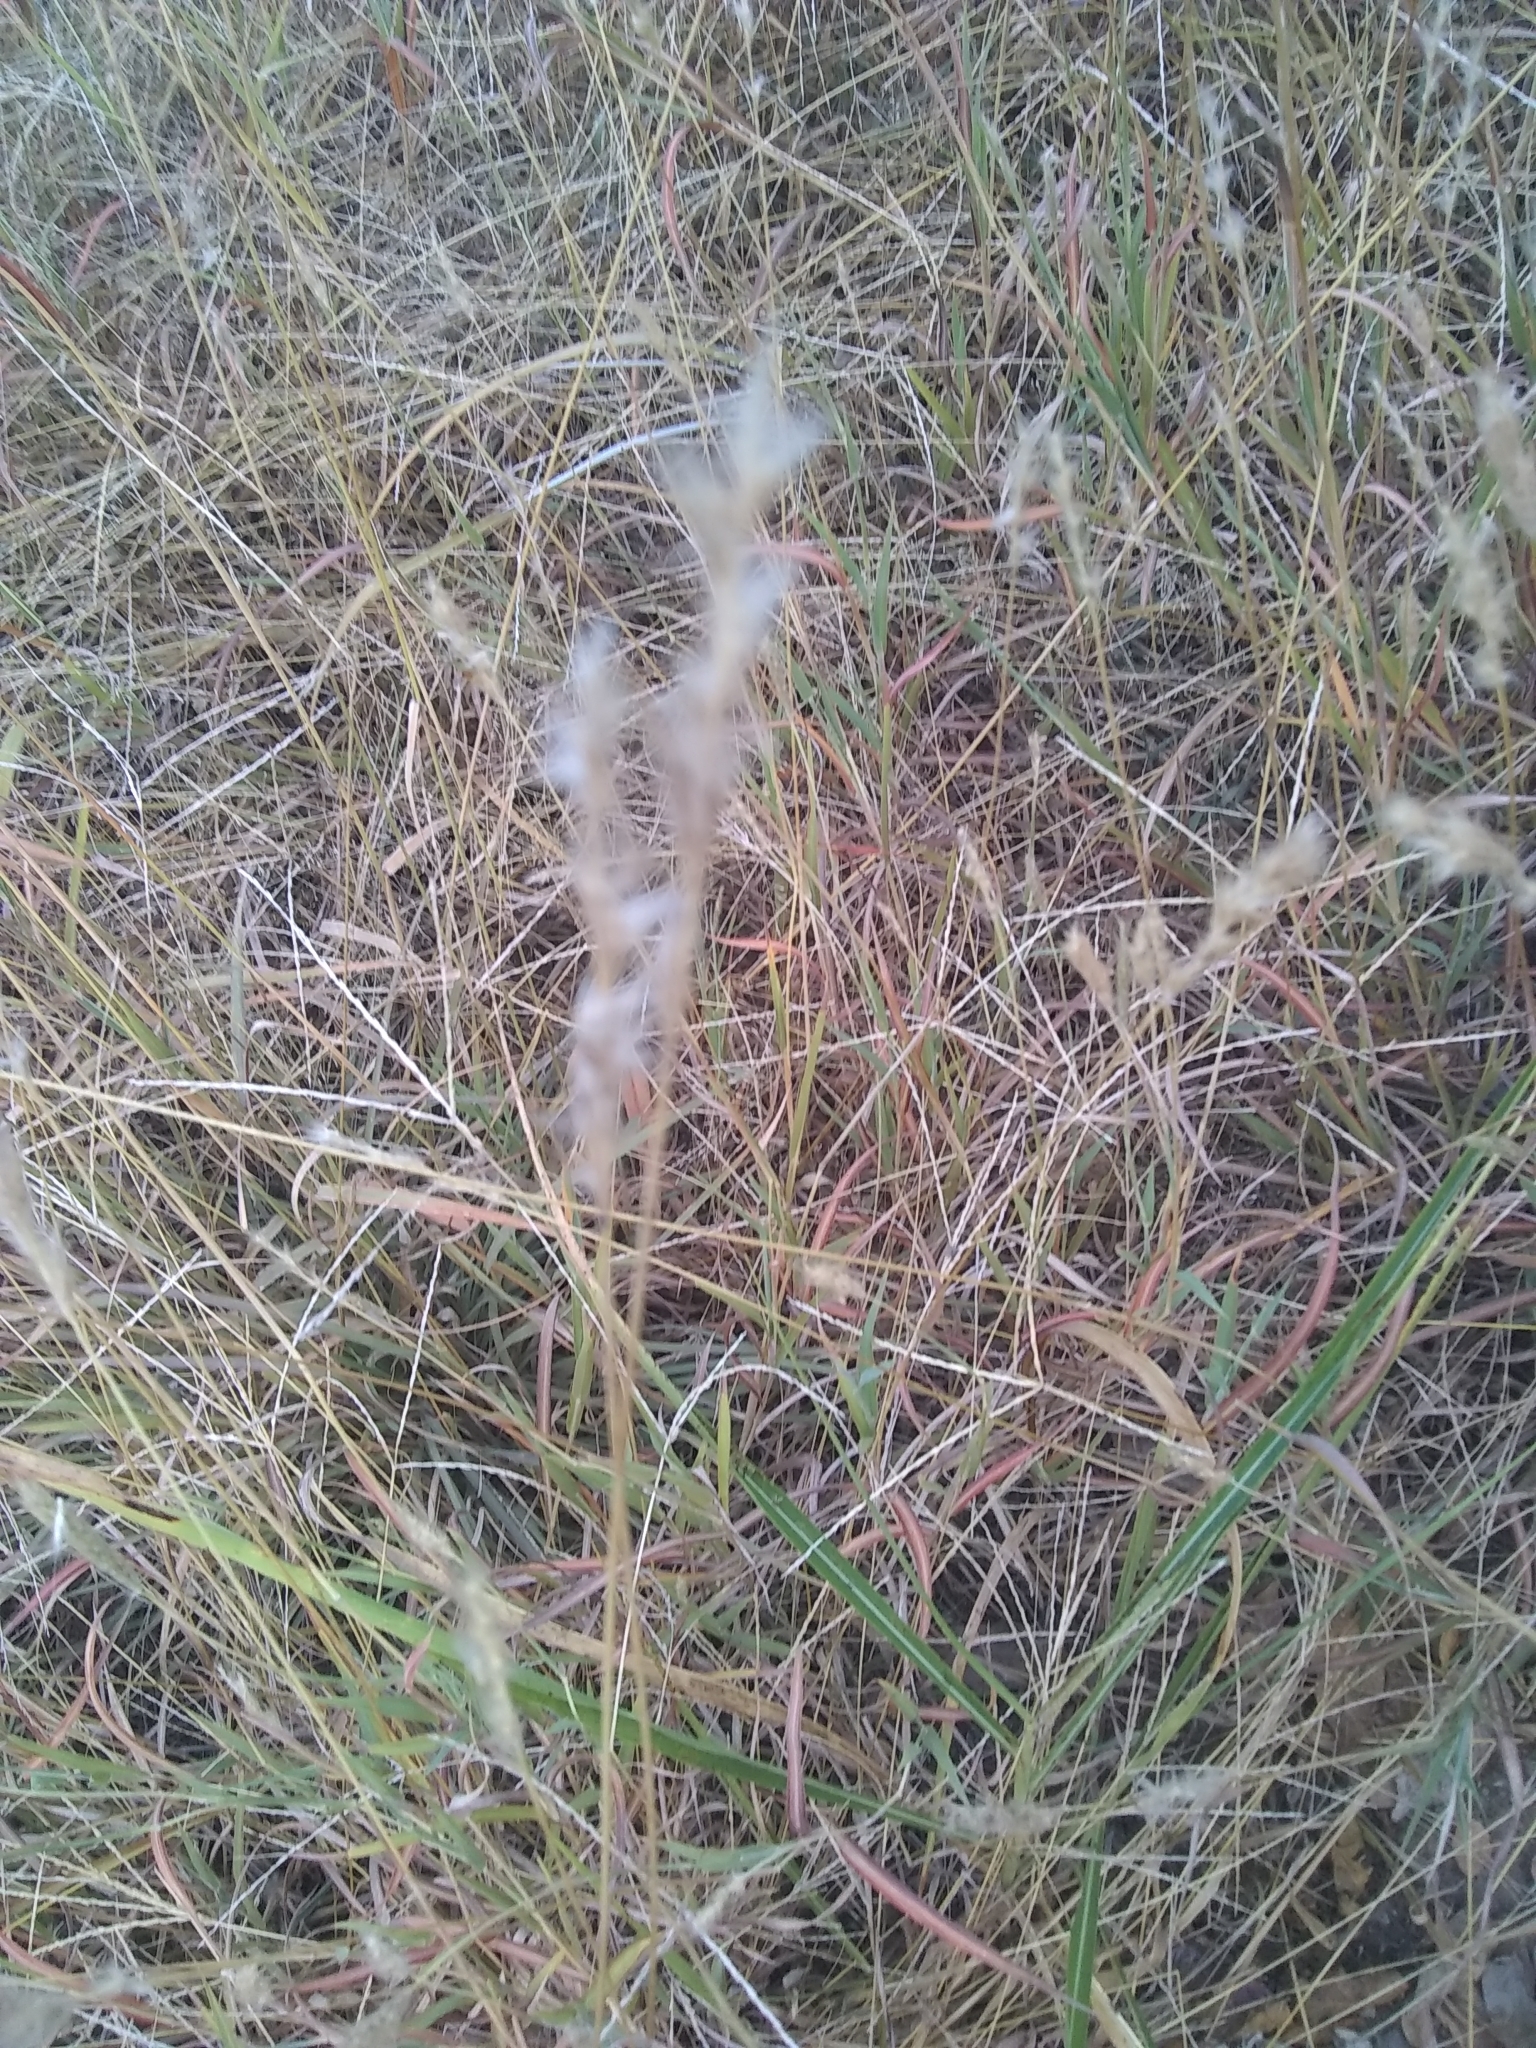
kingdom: Plantae
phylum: Tracheophyta
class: Liliopsida
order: Poales
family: Poaceae
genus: Bothriochloa
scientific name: Bothriochloa torreyana
